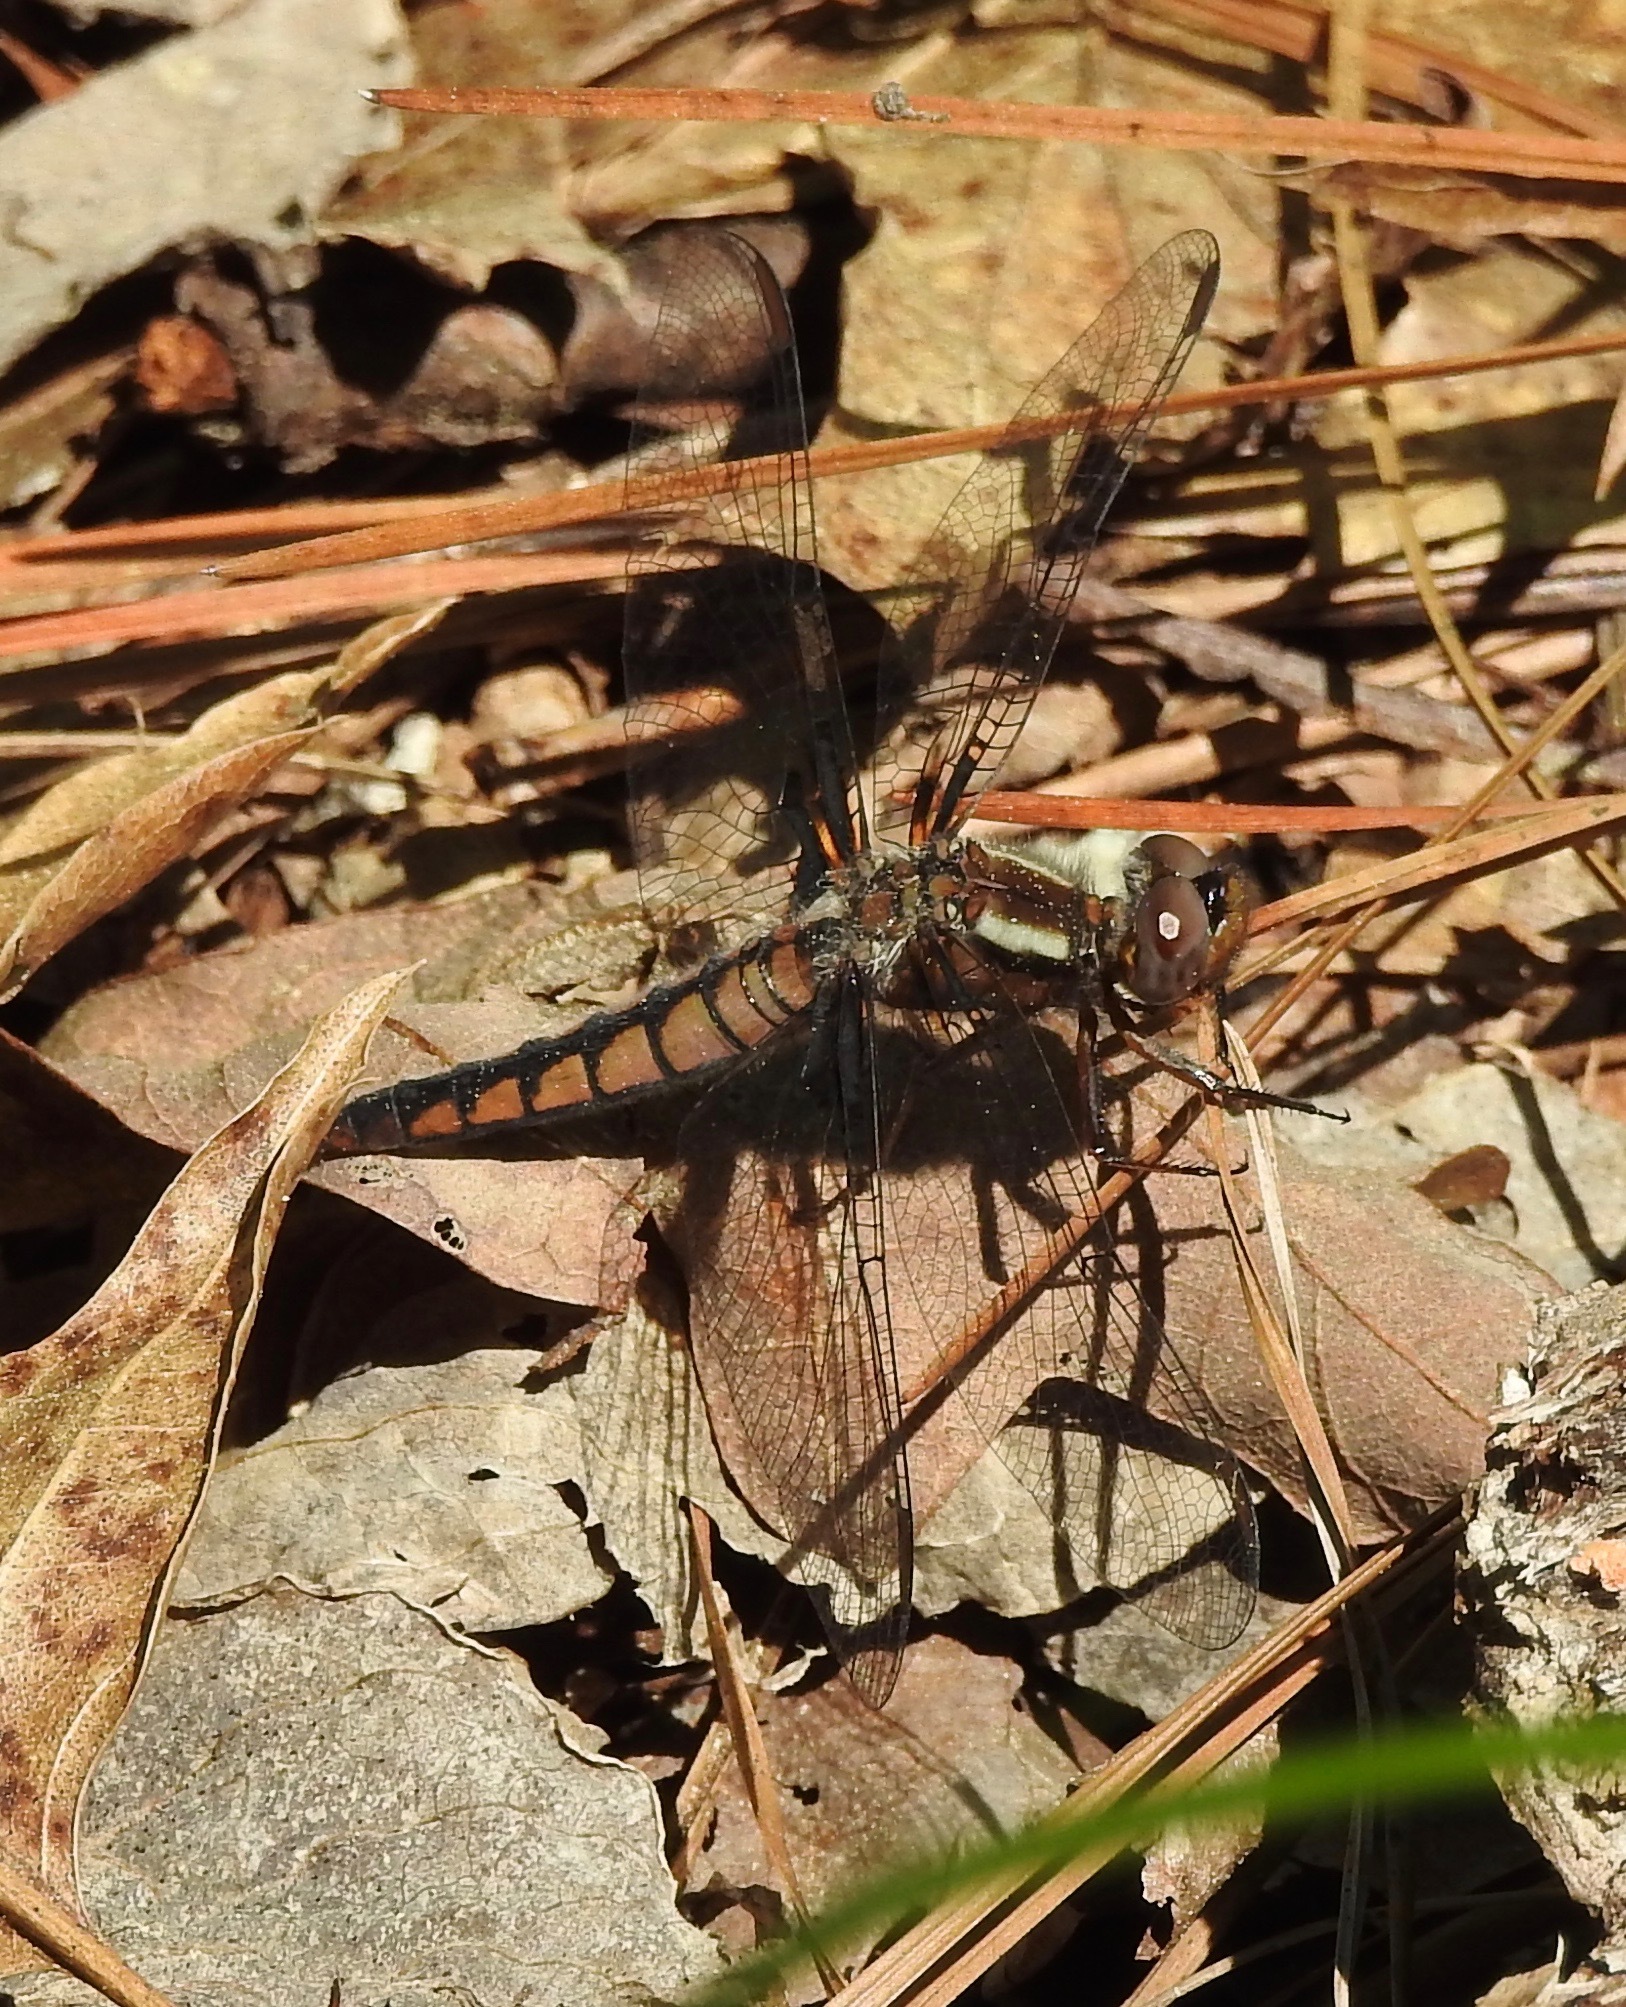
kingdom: Animalia
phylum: Arthropoda
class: Insecta
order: Odonata
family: Libellulidae
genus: Ladona
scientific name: Ladona deplanata
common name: Blue corporal
